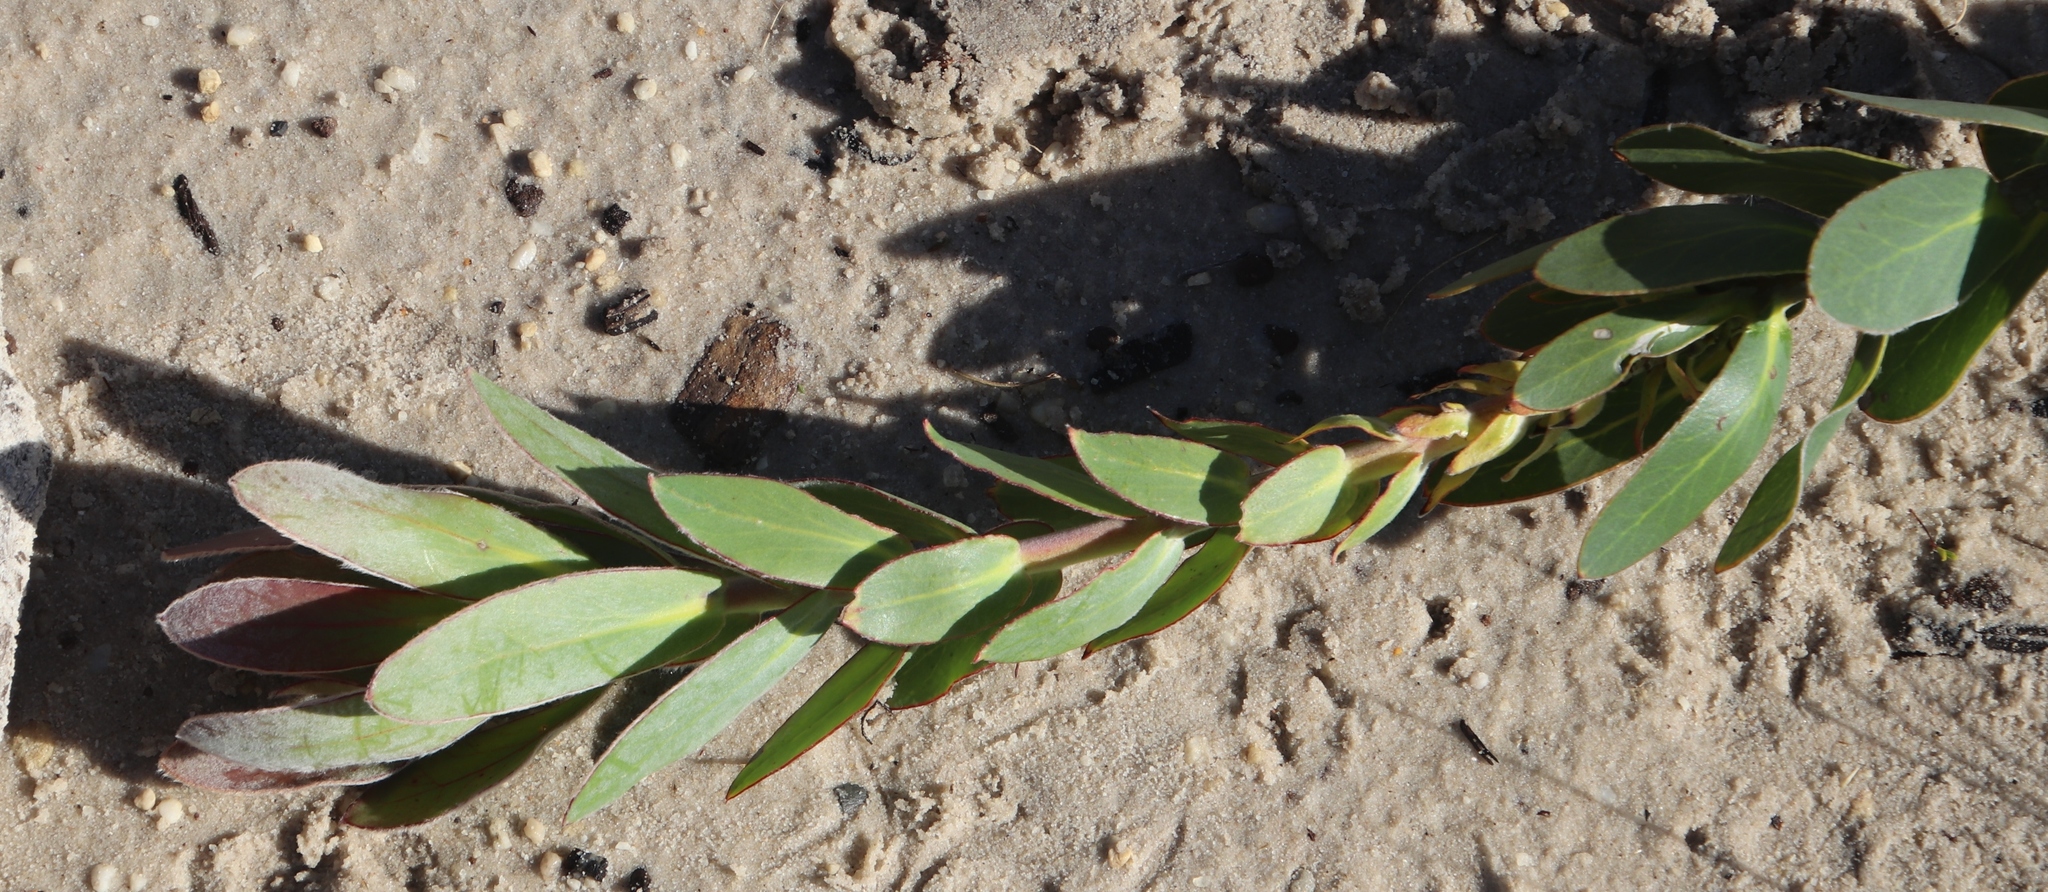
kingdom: Plantae
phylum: Tracheophyta
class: Magnoliopsida
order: Proteales
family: Proteaceae
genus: Protea
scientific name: Protea compacta
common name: Bot river protea
